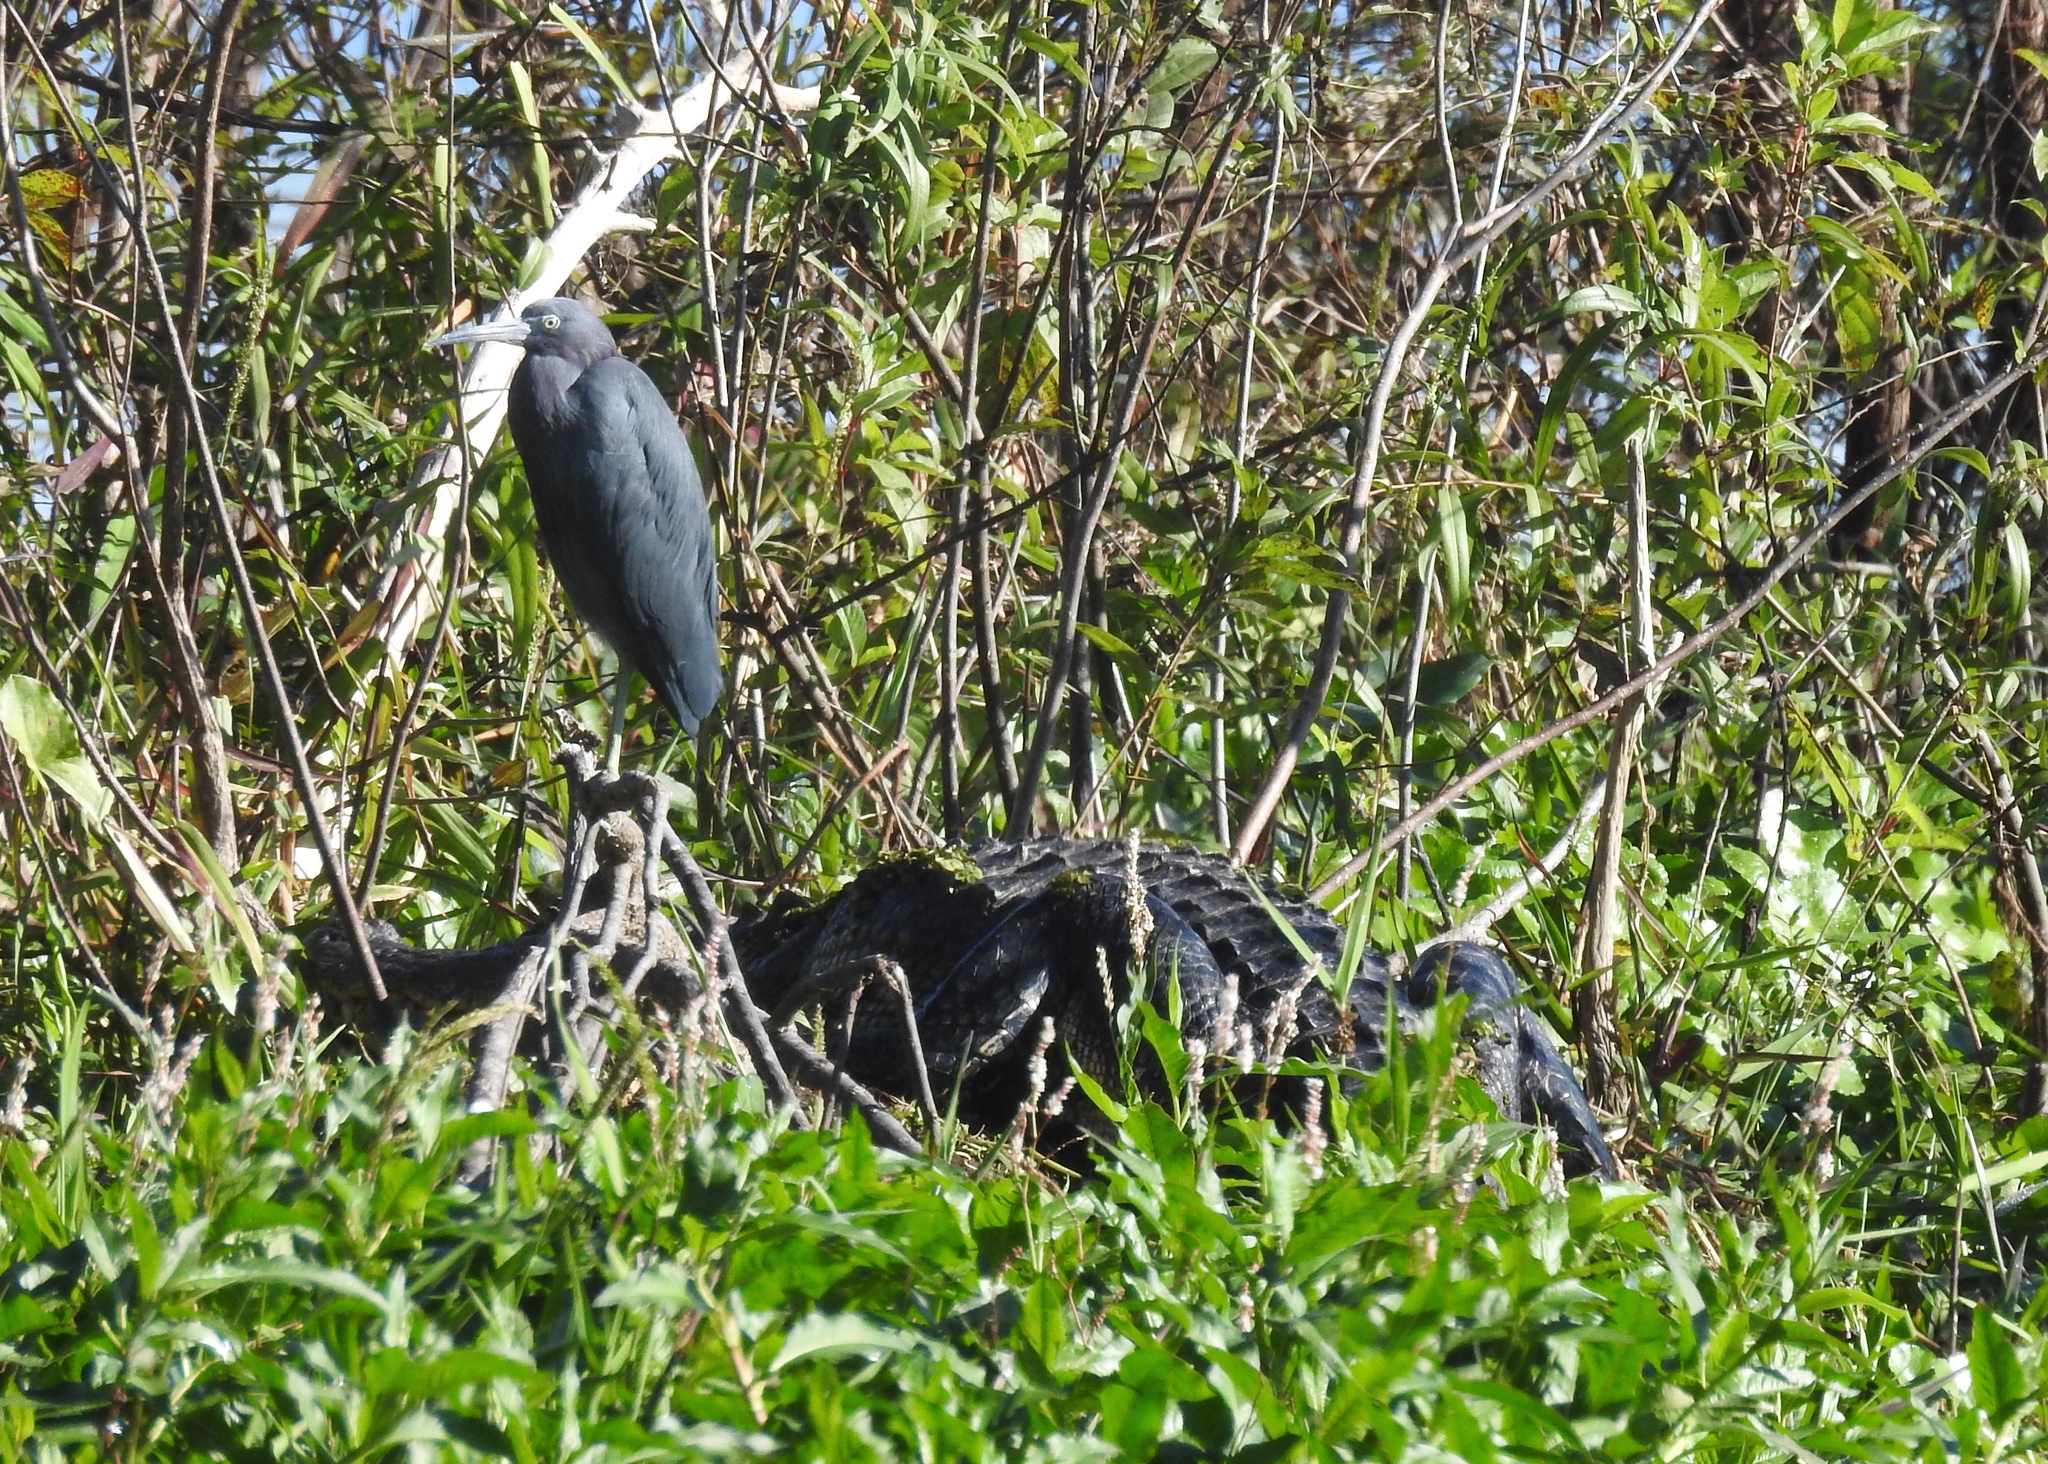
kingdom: Animalia
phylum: Chordata
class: Aves
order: Pelecaniformes
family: Ardeidae
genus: Egretta
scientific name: Egretta caerulea
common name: Little blue heron
